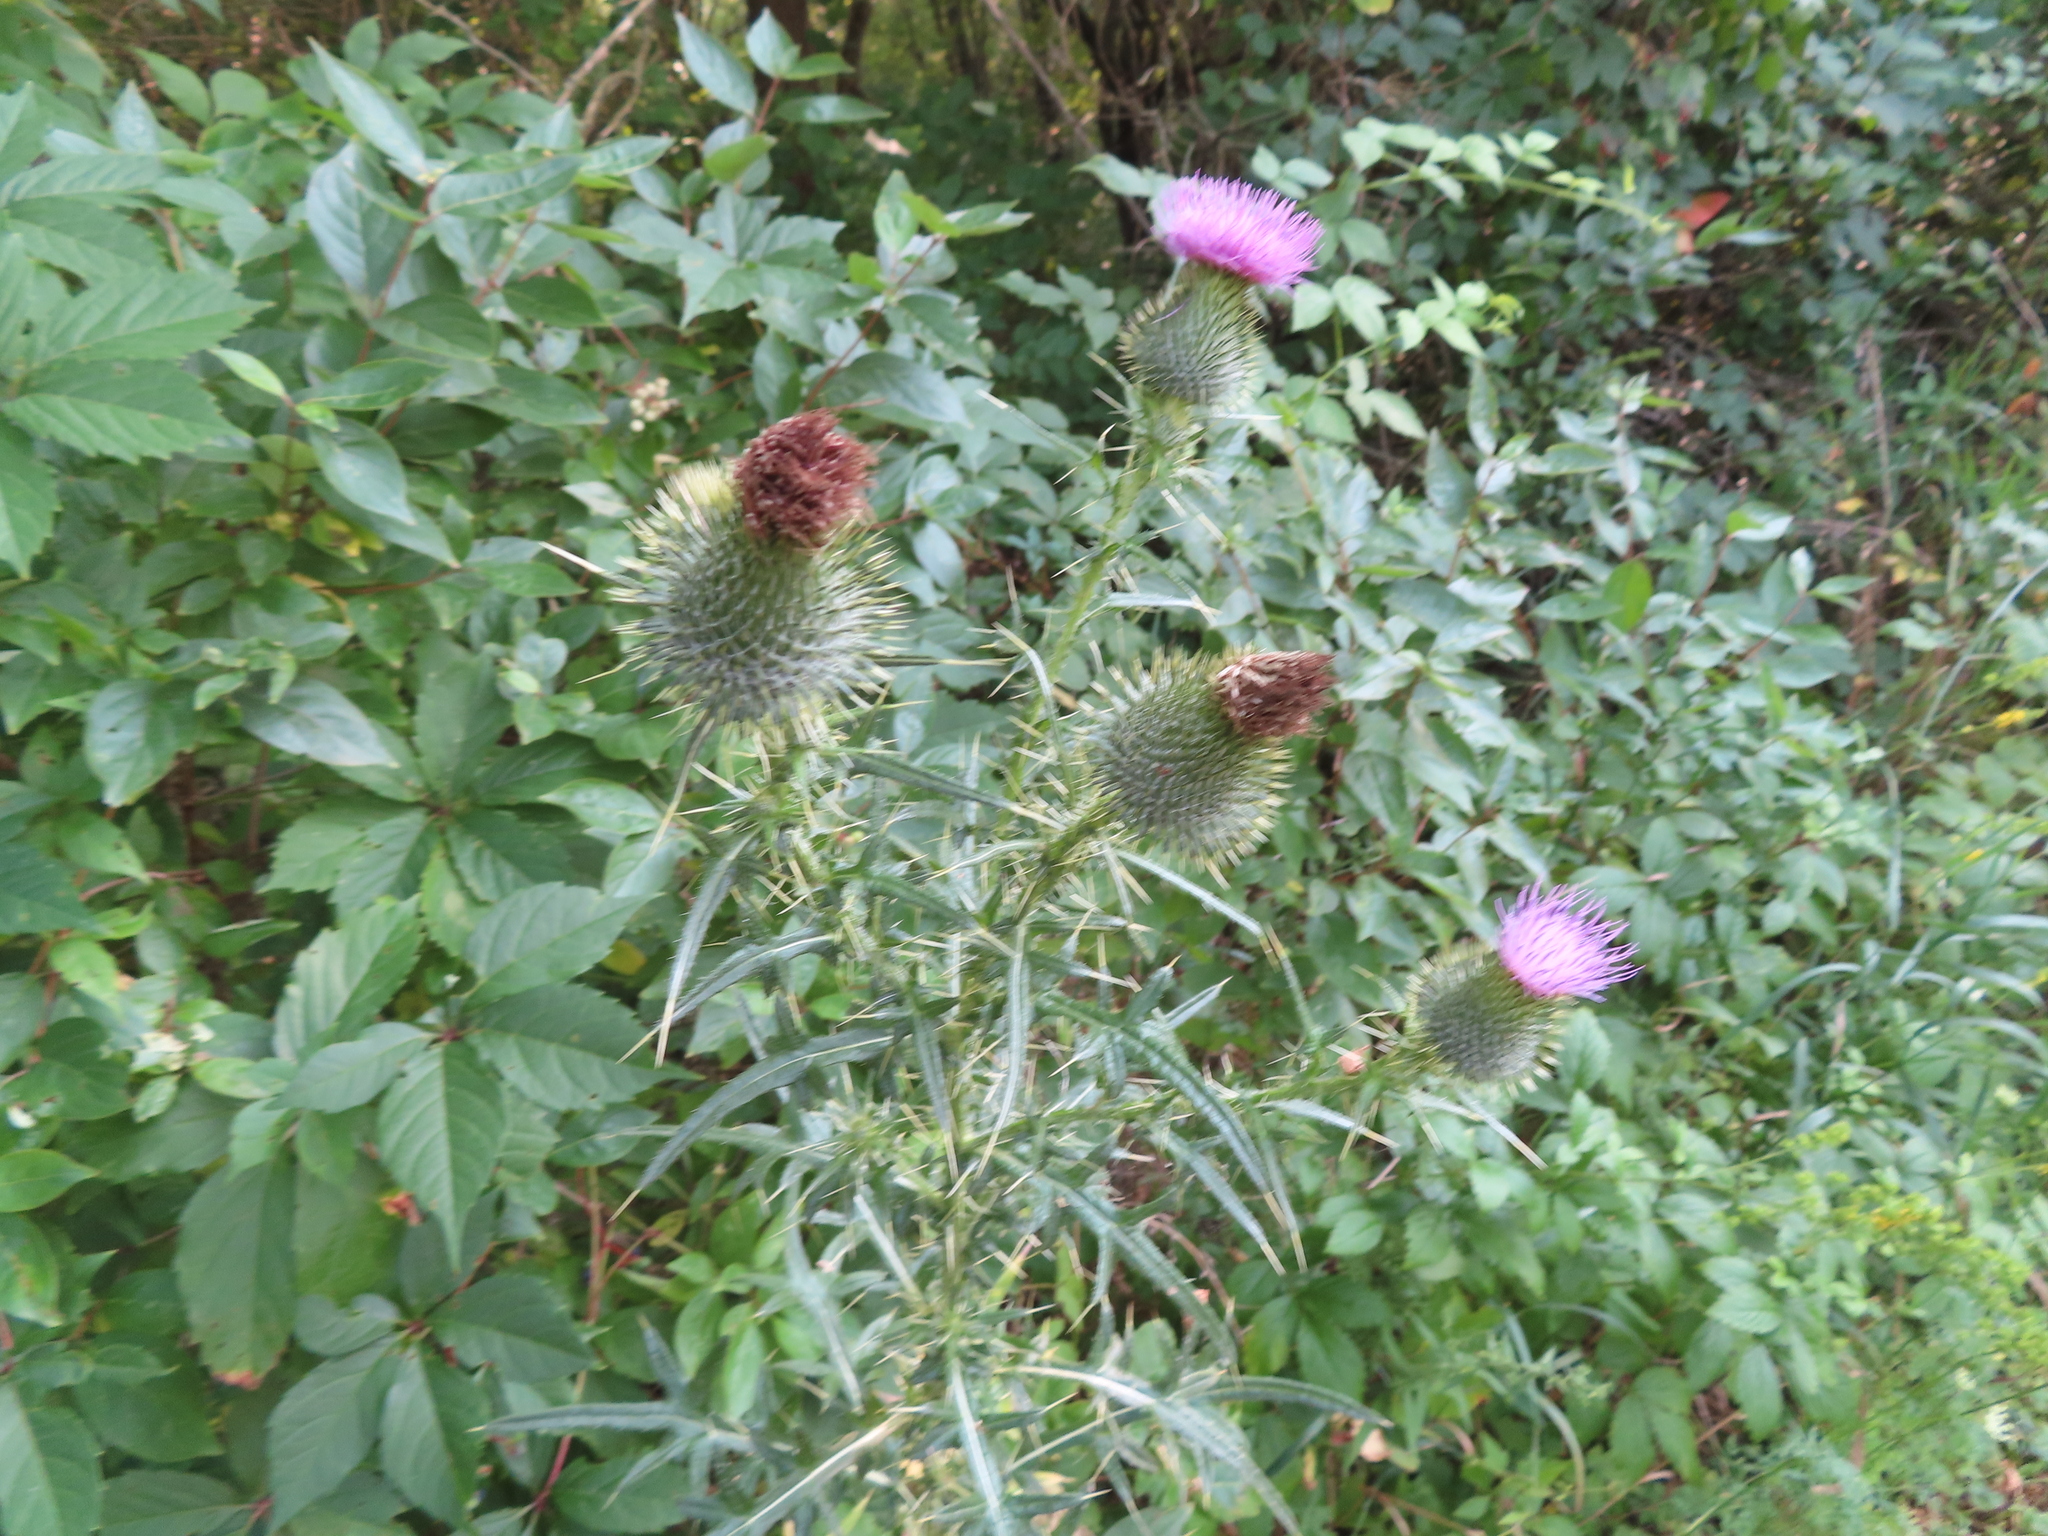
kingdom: Plantae
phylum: Tracheophyta
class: Magnoliopsida
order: Asterales
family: Asteraceae
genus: Cirsium
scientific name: Cirsium vulgare
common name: Bull thistle
